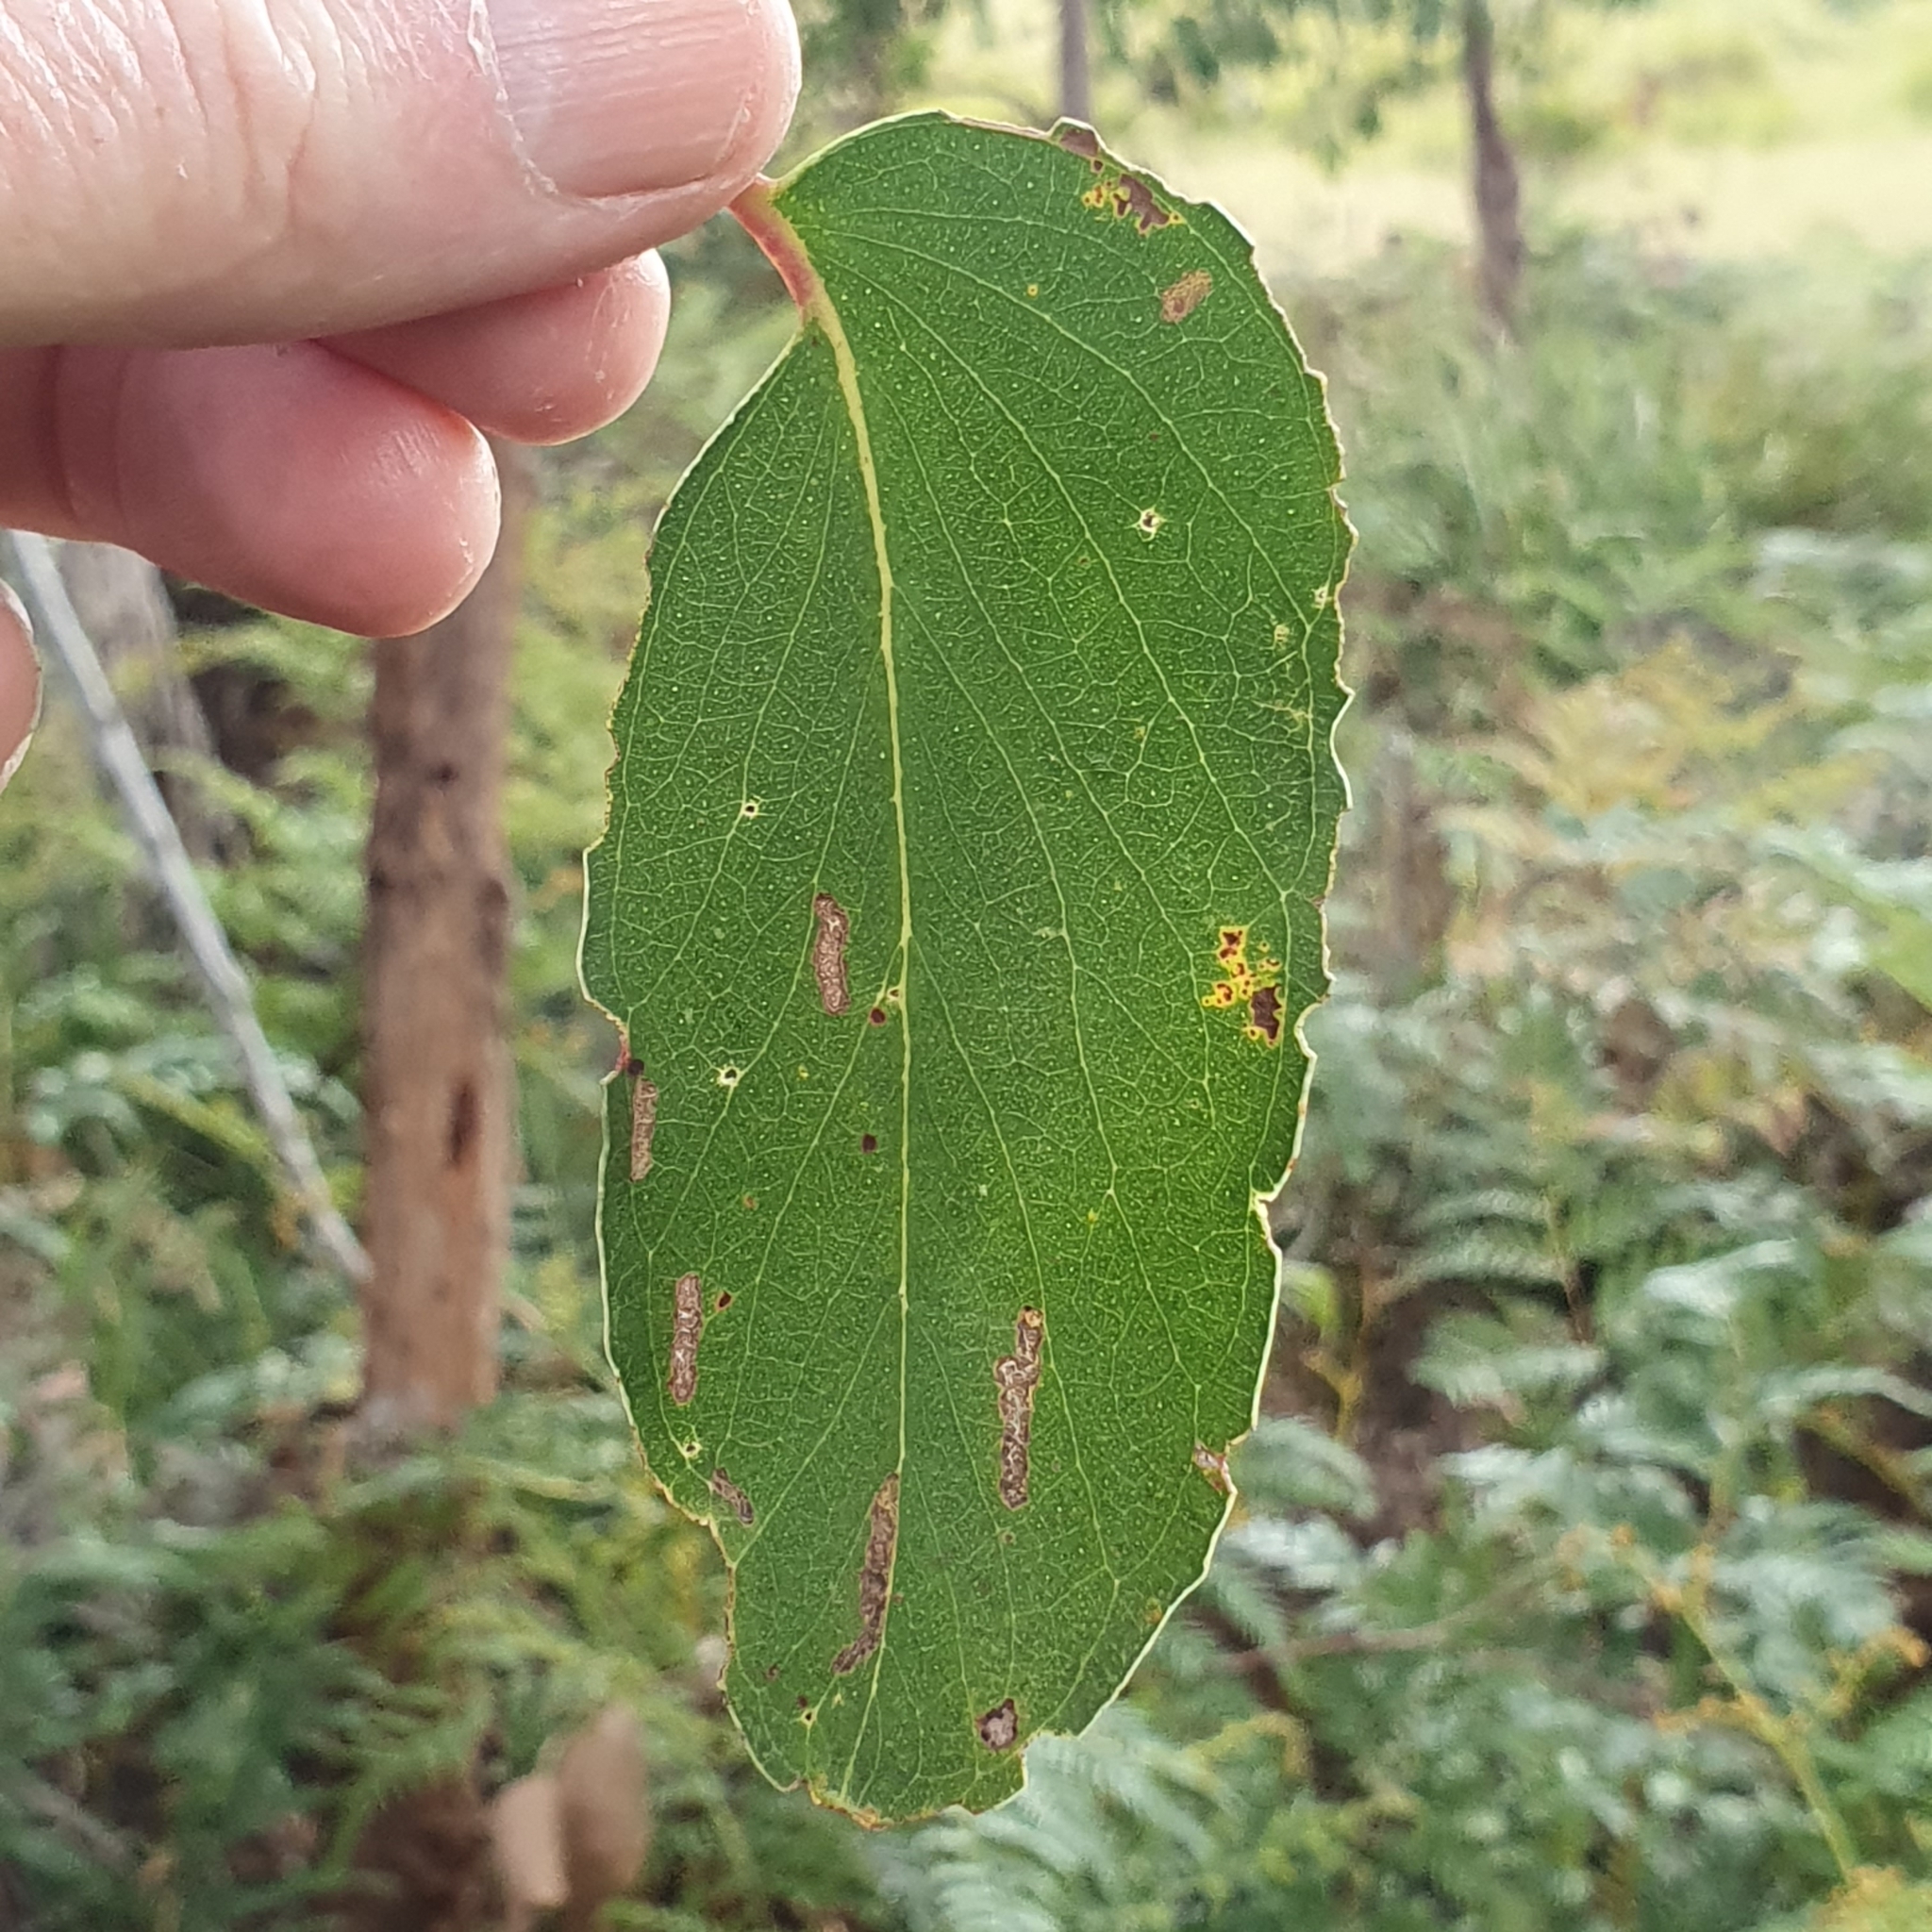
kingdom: Plantae
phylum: Tracheophyta
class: Magnoliopsida
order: Myrtales
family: Myrtaceae
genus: Eucalyptus
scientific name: Eucalyptus obliqua
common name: Messmate stringybark
